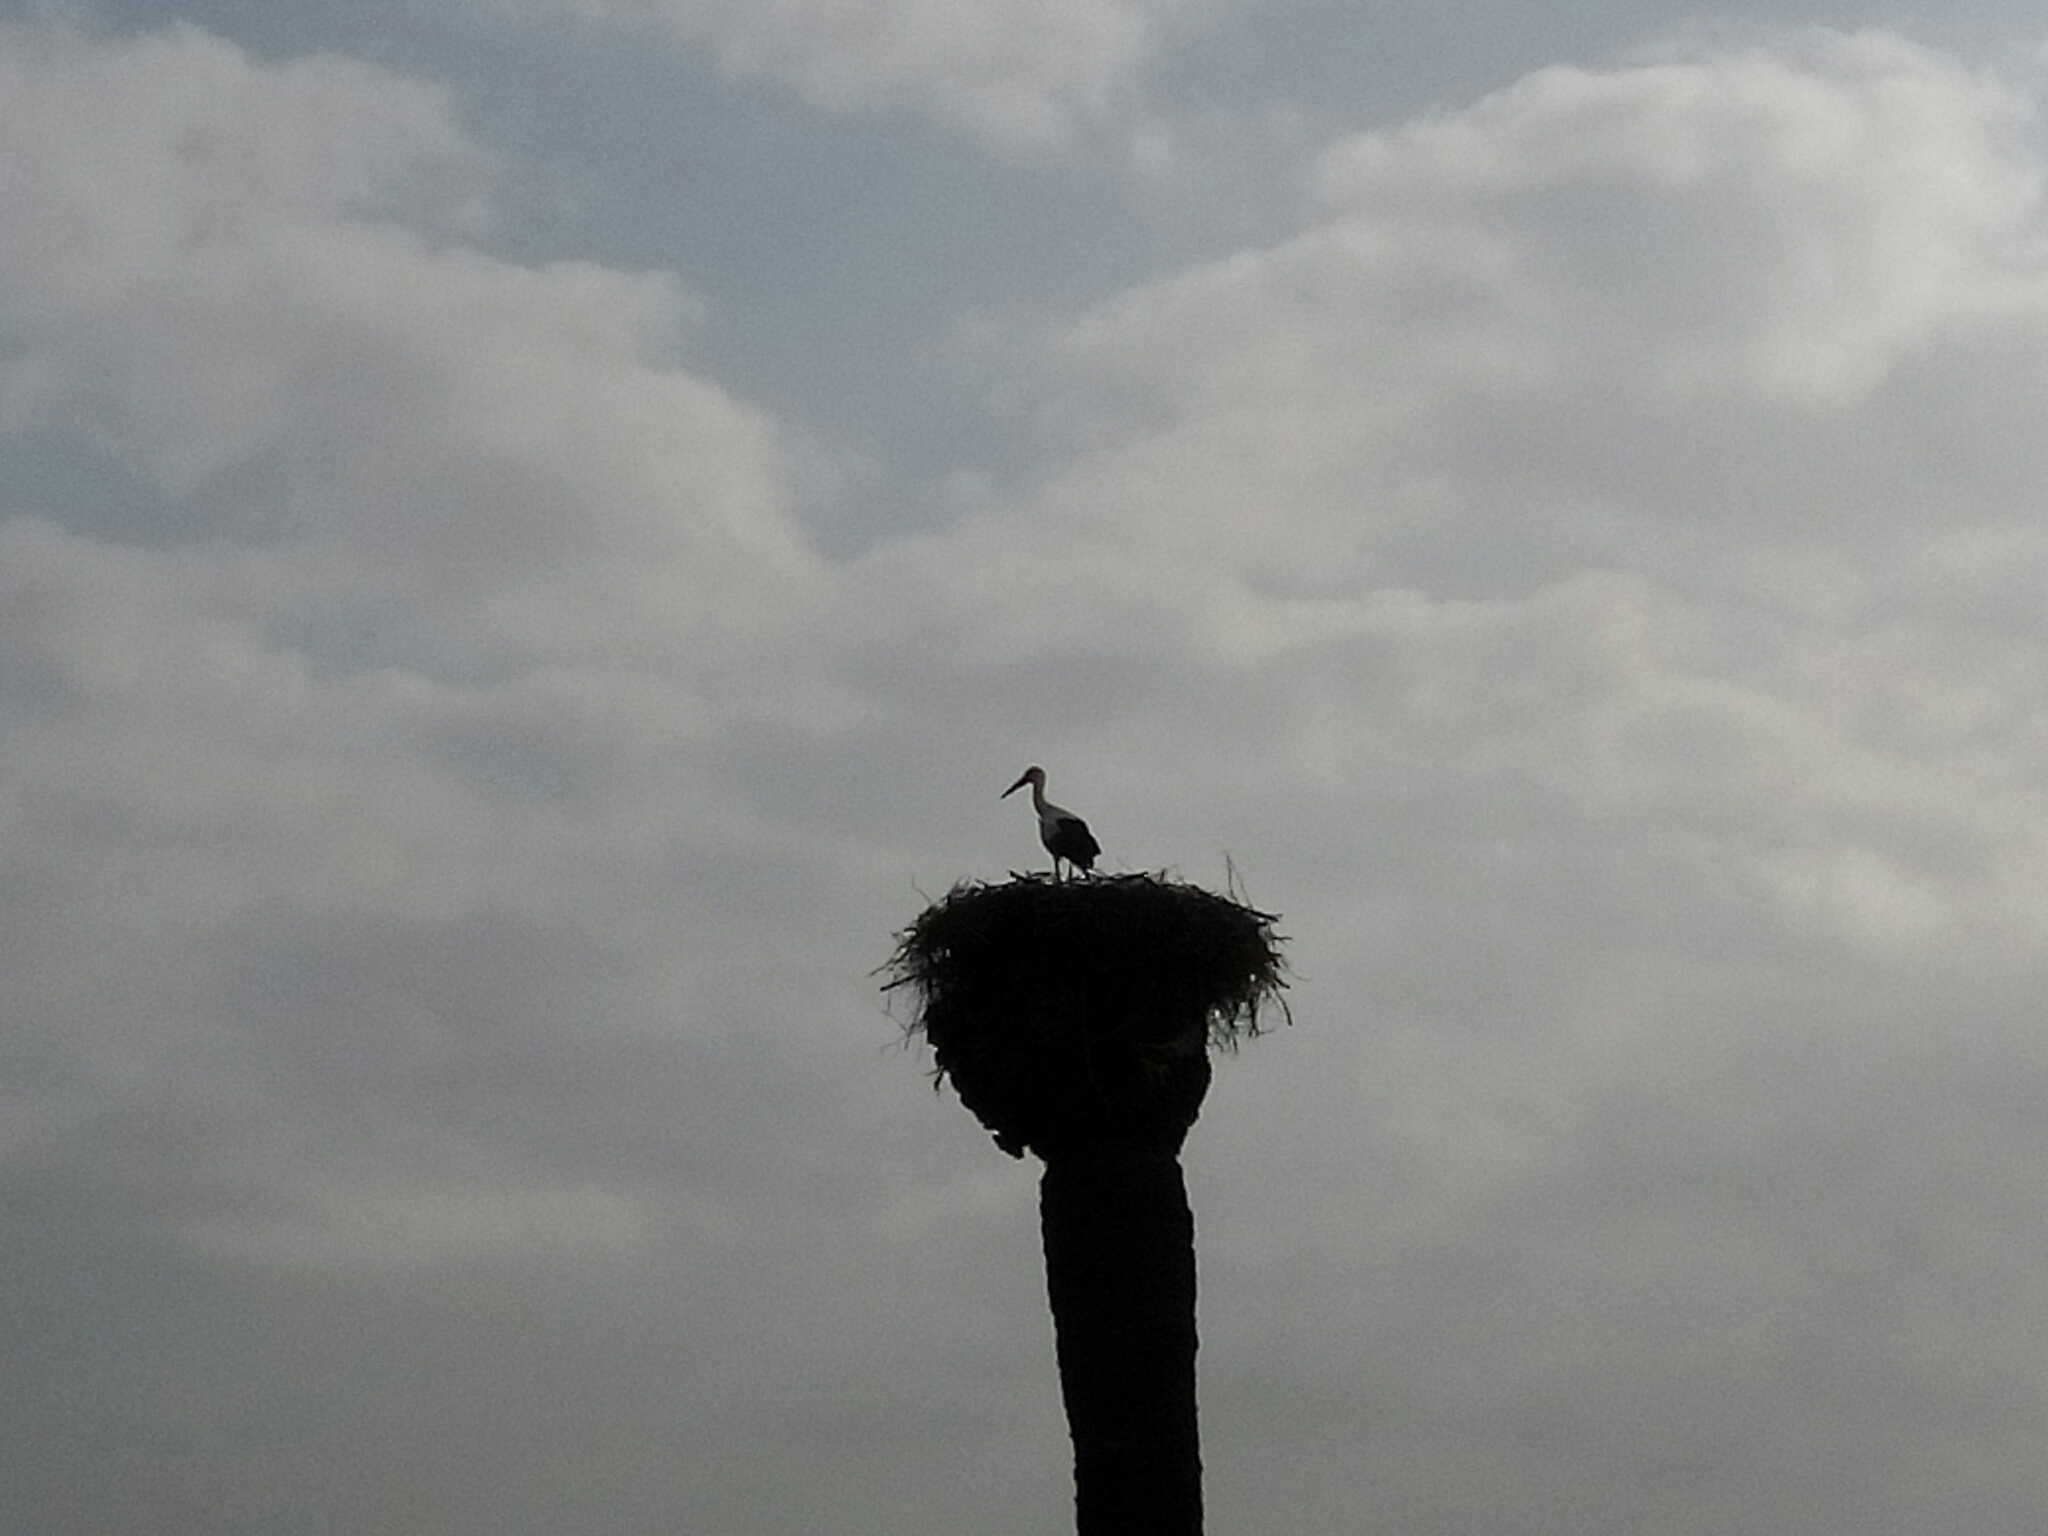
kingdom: Animalia
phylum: Chordata
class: Aves
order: Ciconiiformes
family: Ciconiidae
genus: Ciconia
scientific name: Ciconia ciconia
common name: White stork
